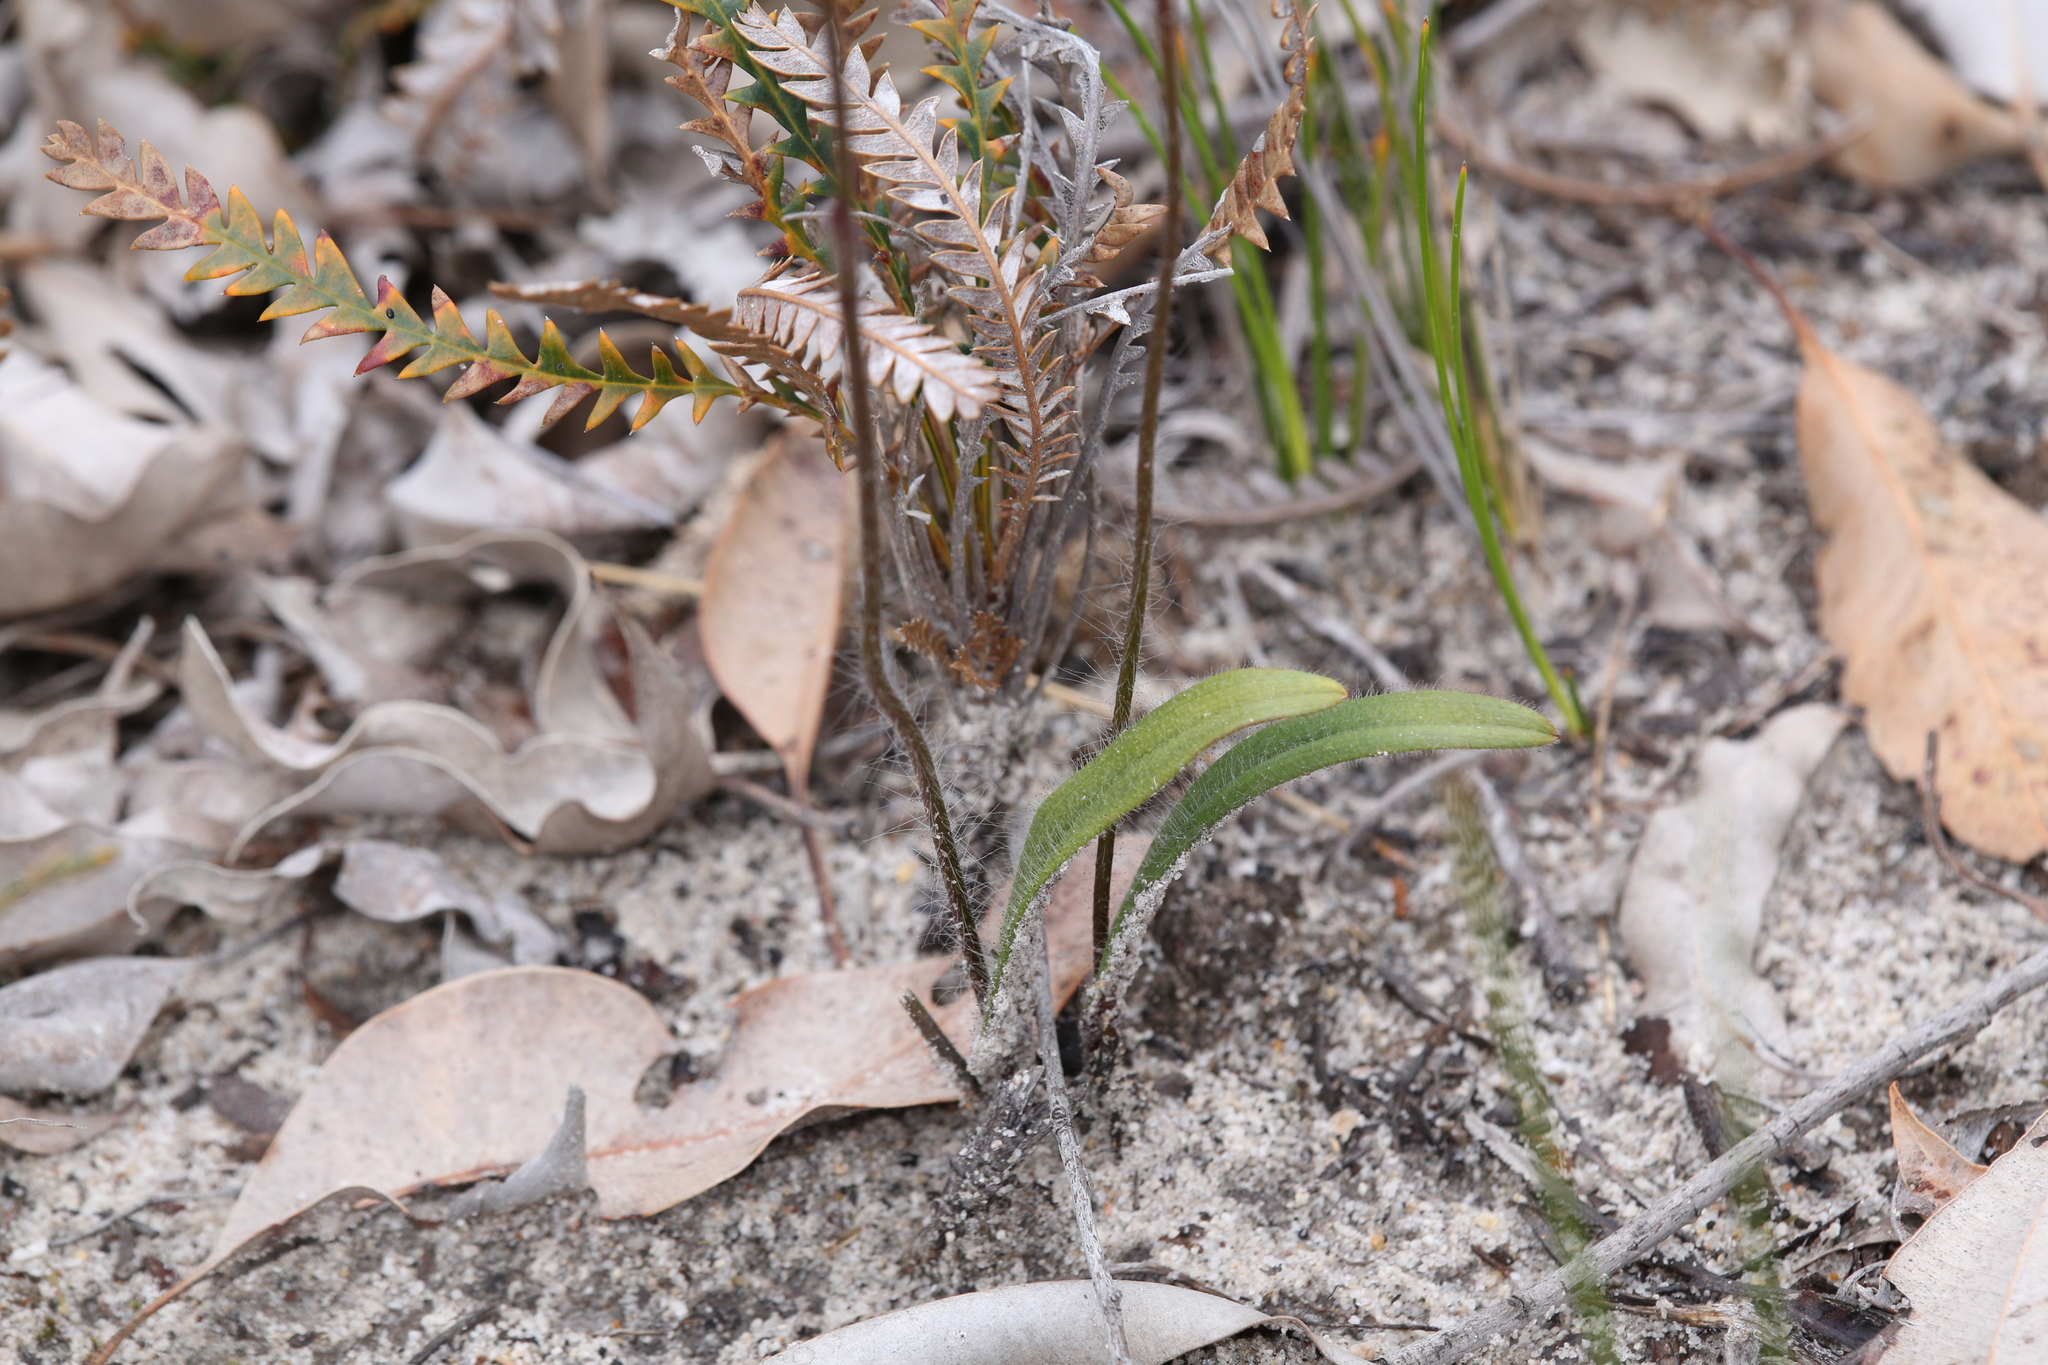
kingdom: Plantae
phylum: Tracheophyta
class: Liliopsida
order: Asparagales
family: Orchidaceae
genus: Caladenia
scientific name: Caladenia brunonis
